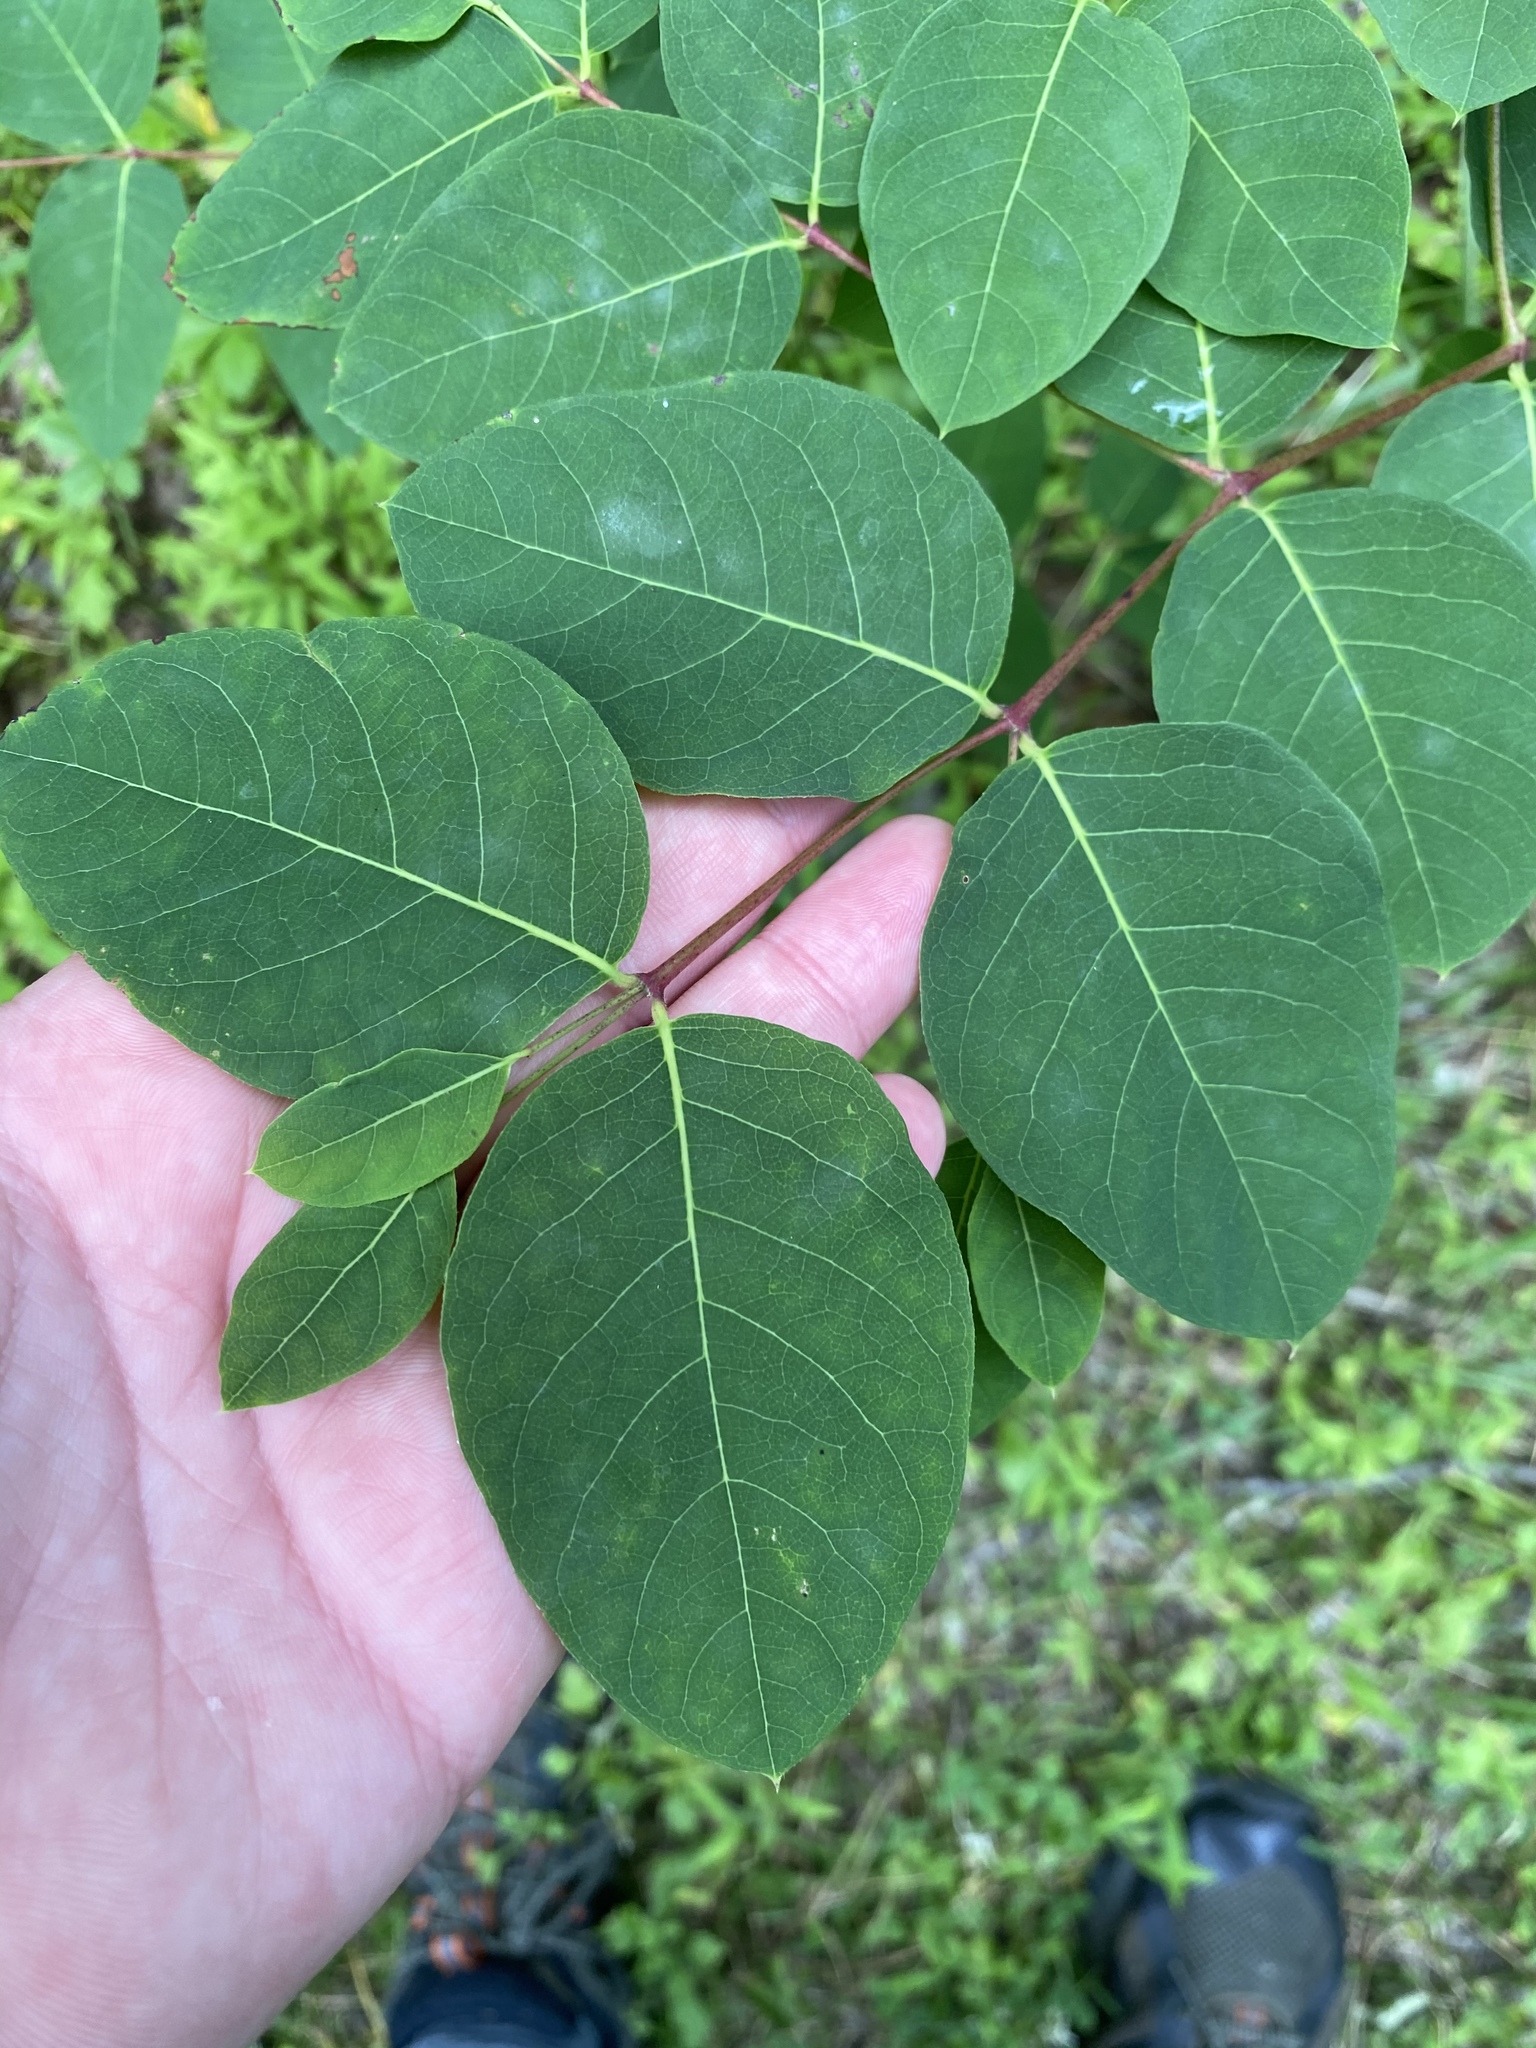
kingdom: Plantae
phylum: Tracheophyta
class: Magnoliopsida
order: Gentianales
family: Apocynaceae
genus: Apocynum
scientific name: Apocynum androsaemifolium
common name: Spreading dogbane
